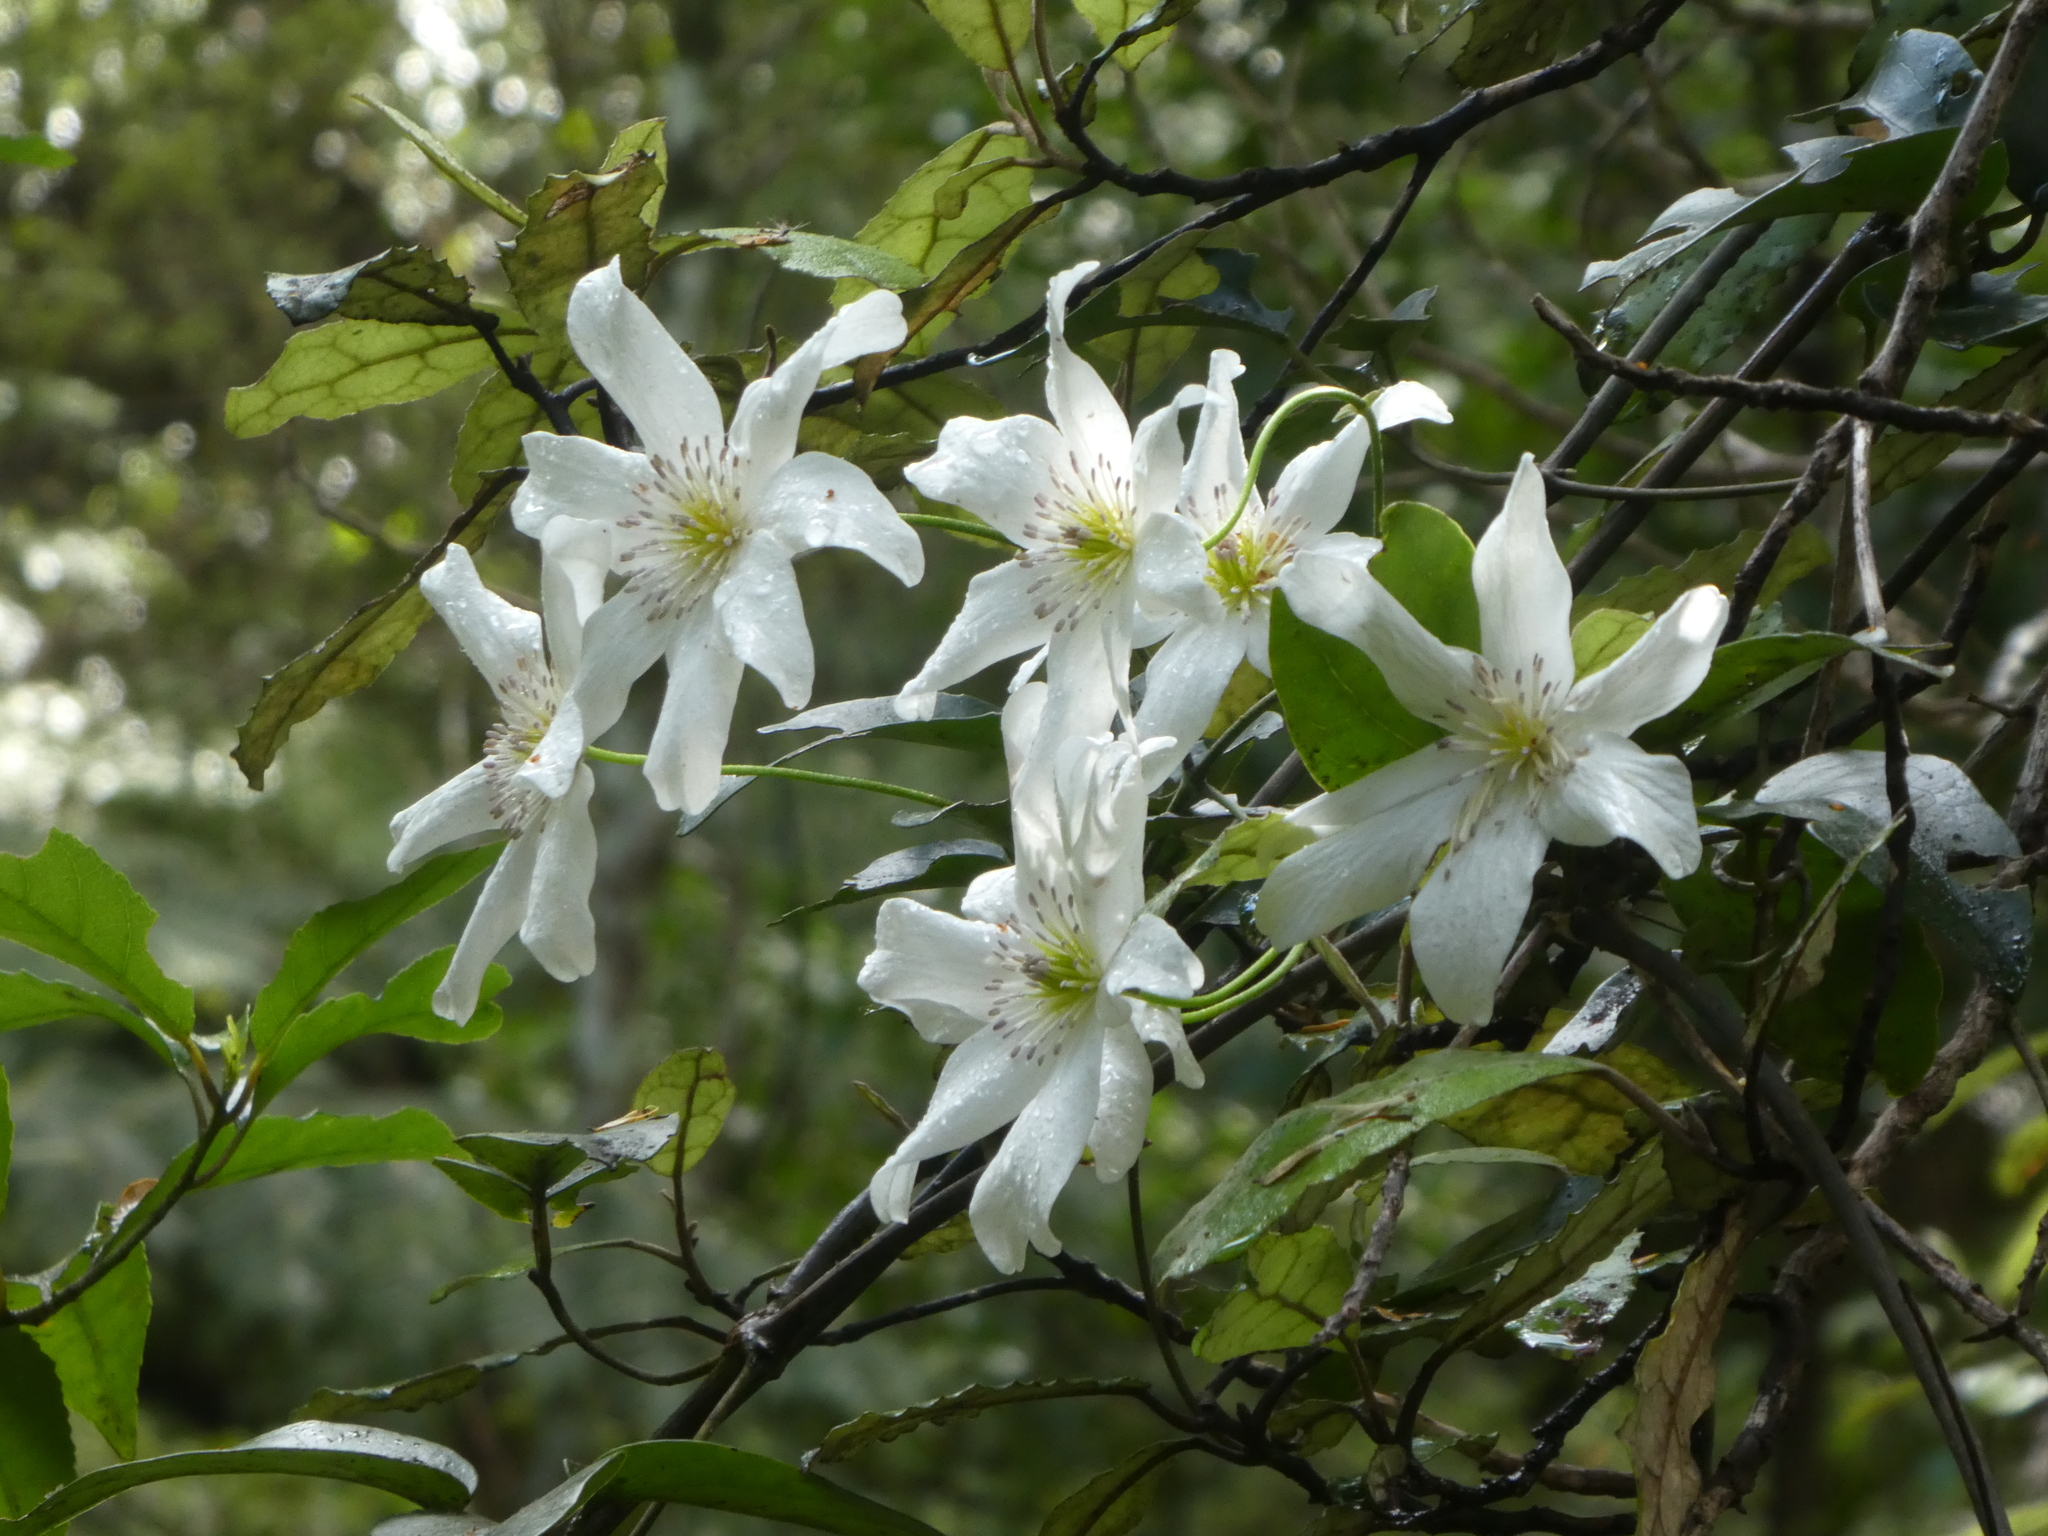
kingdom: Plantae
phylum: Tracheophyta
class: Magnoliopsida
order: Ranunculales
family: Ranunculaceae
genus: Clematis
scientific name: Clematis paniculata
